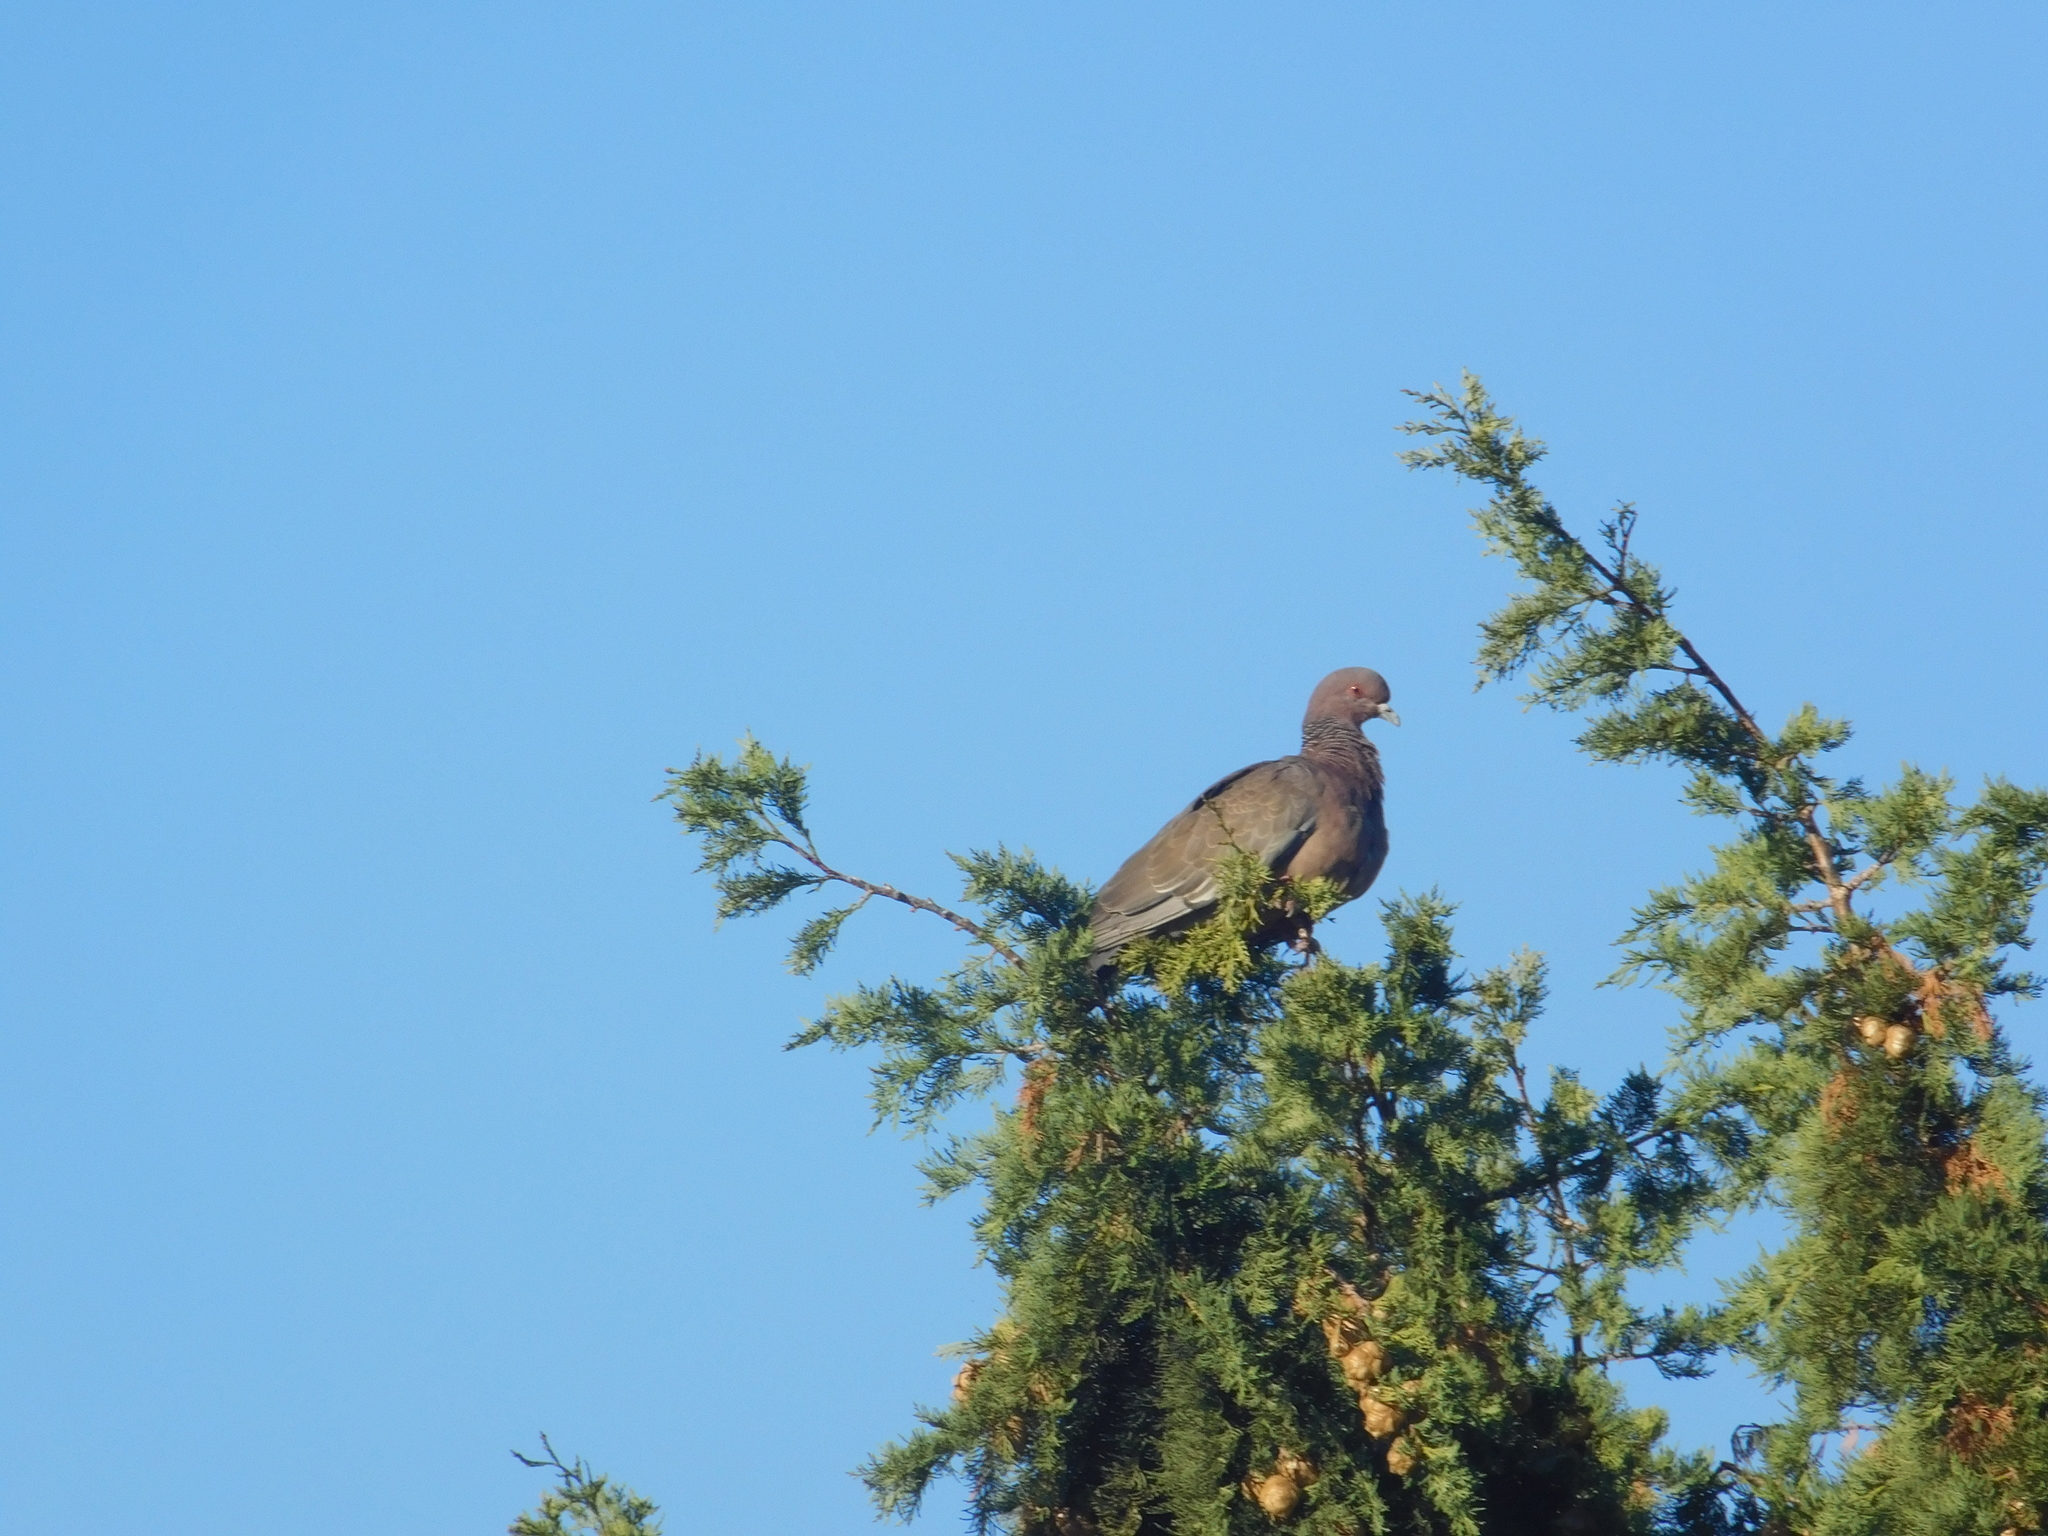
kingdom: Animalia
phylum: Chordata
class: Aves
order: Columbiformes
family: Columbidae
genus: Patagioenas
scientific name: Patagioenas picazuro
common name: Picazuro pigeon
